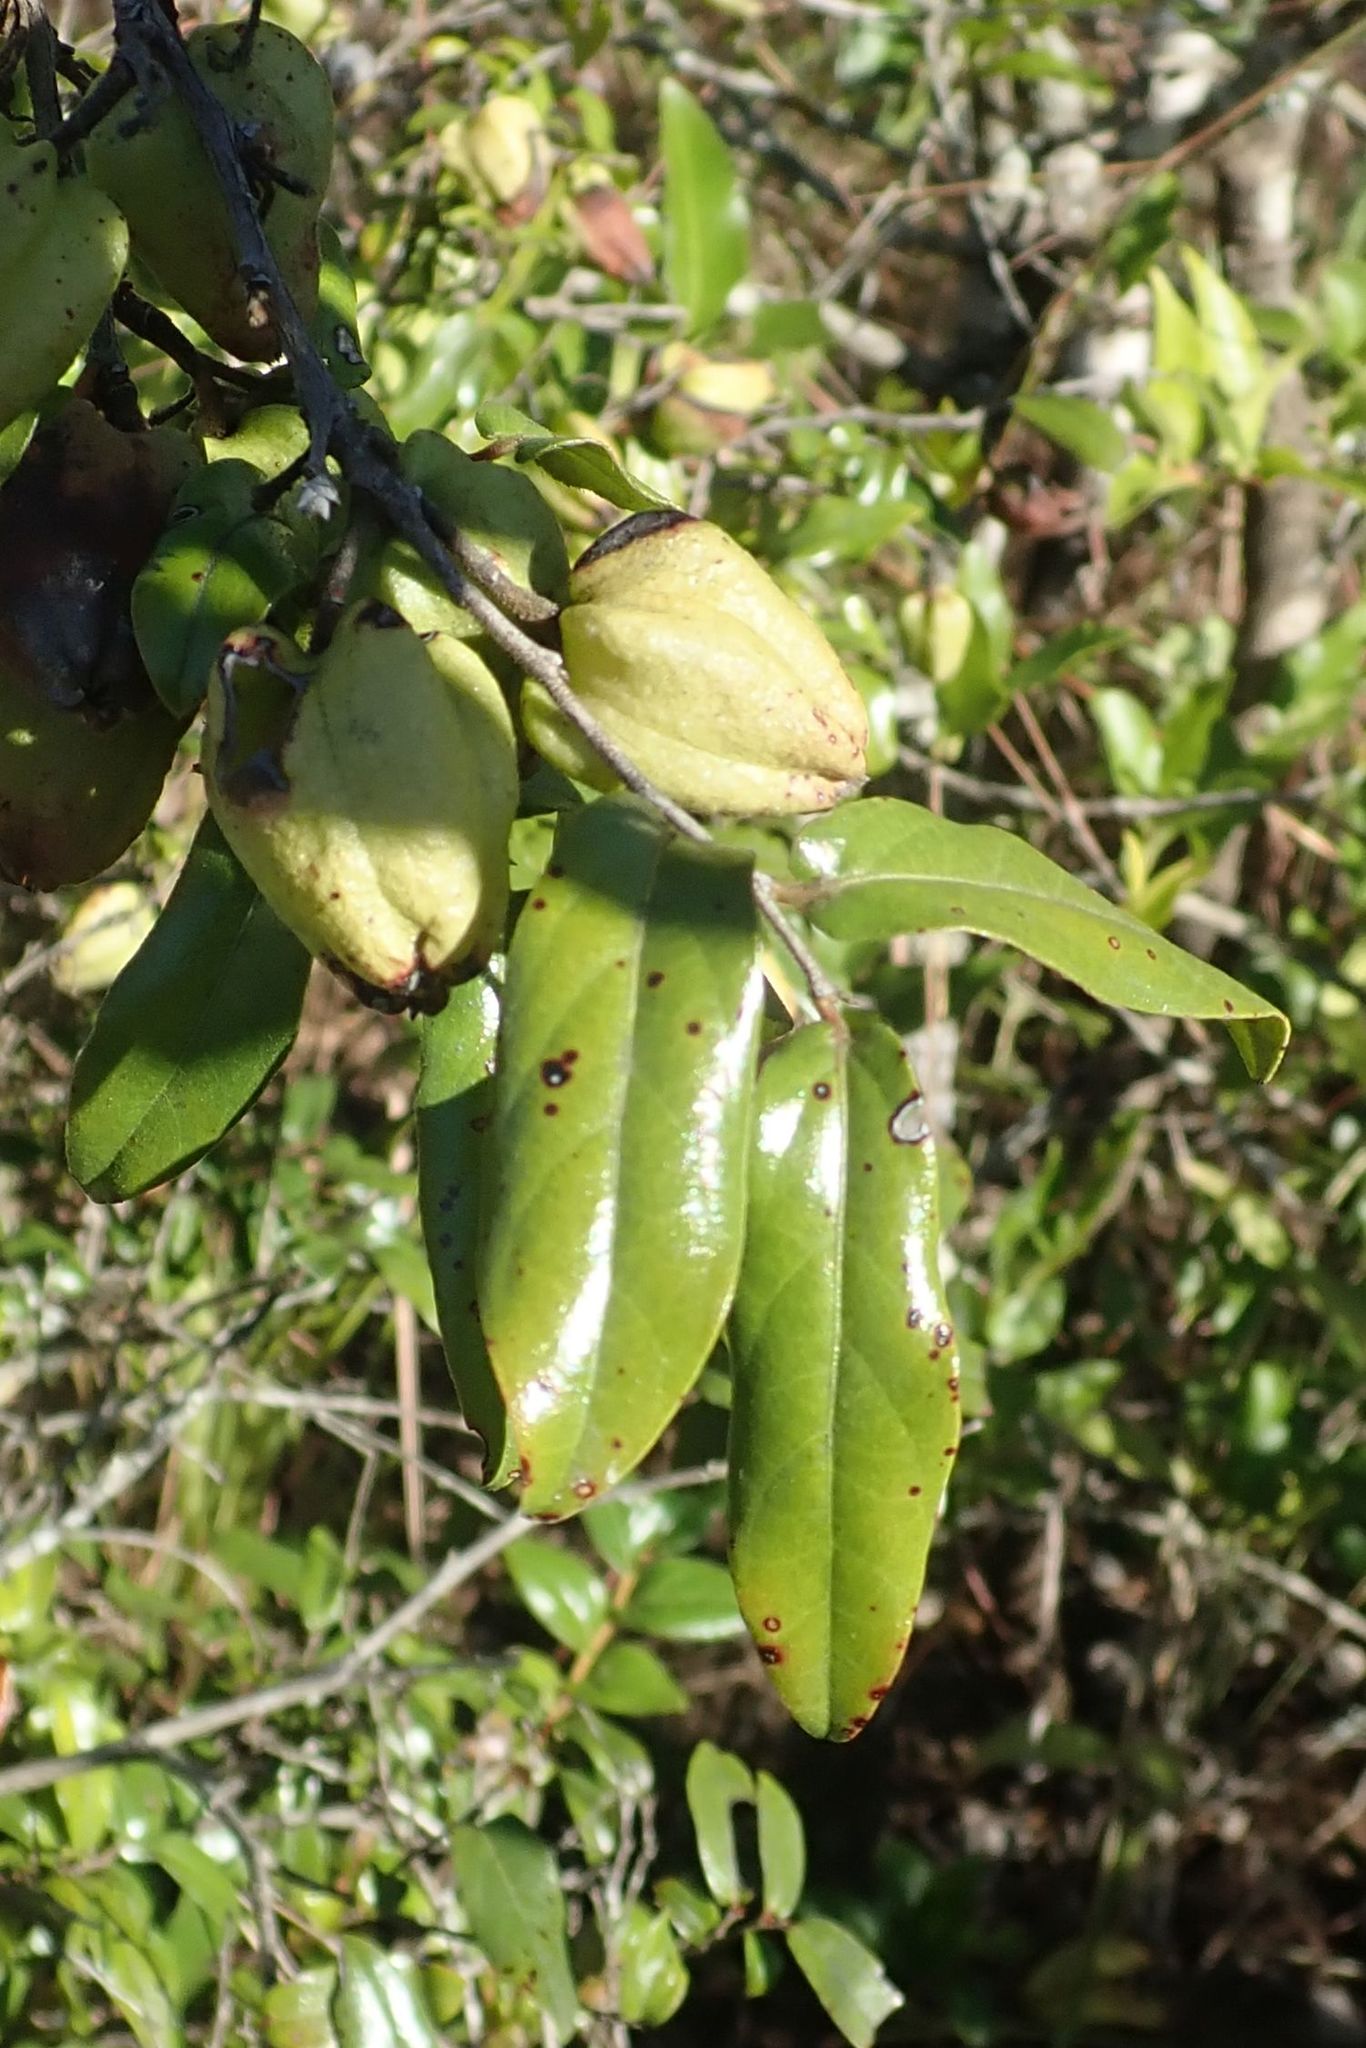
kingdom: Plantae
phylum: Tracheophyta
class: Magnoliopsida
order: Ericales
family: Ebenaceae
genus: Diospyros
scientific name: Diospyros whyteana
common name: Bladder-nut
